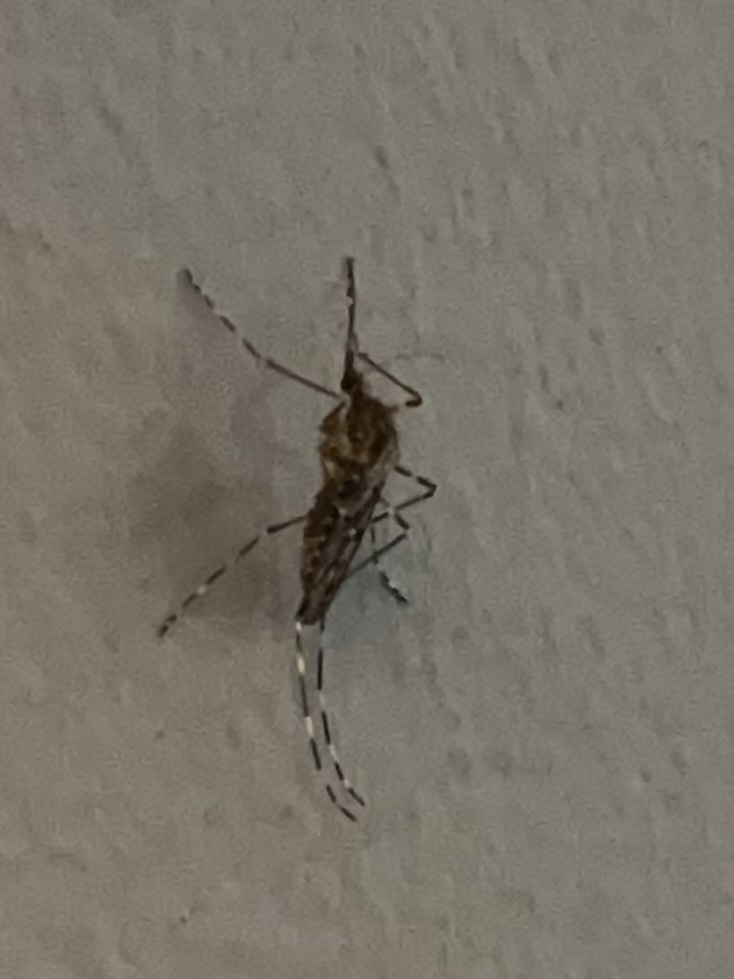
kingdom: Animalia
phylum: Arthropoda
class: Insecta
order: Diptera
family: Culicidae
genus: Culiseta
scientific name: Culiseta annulata
